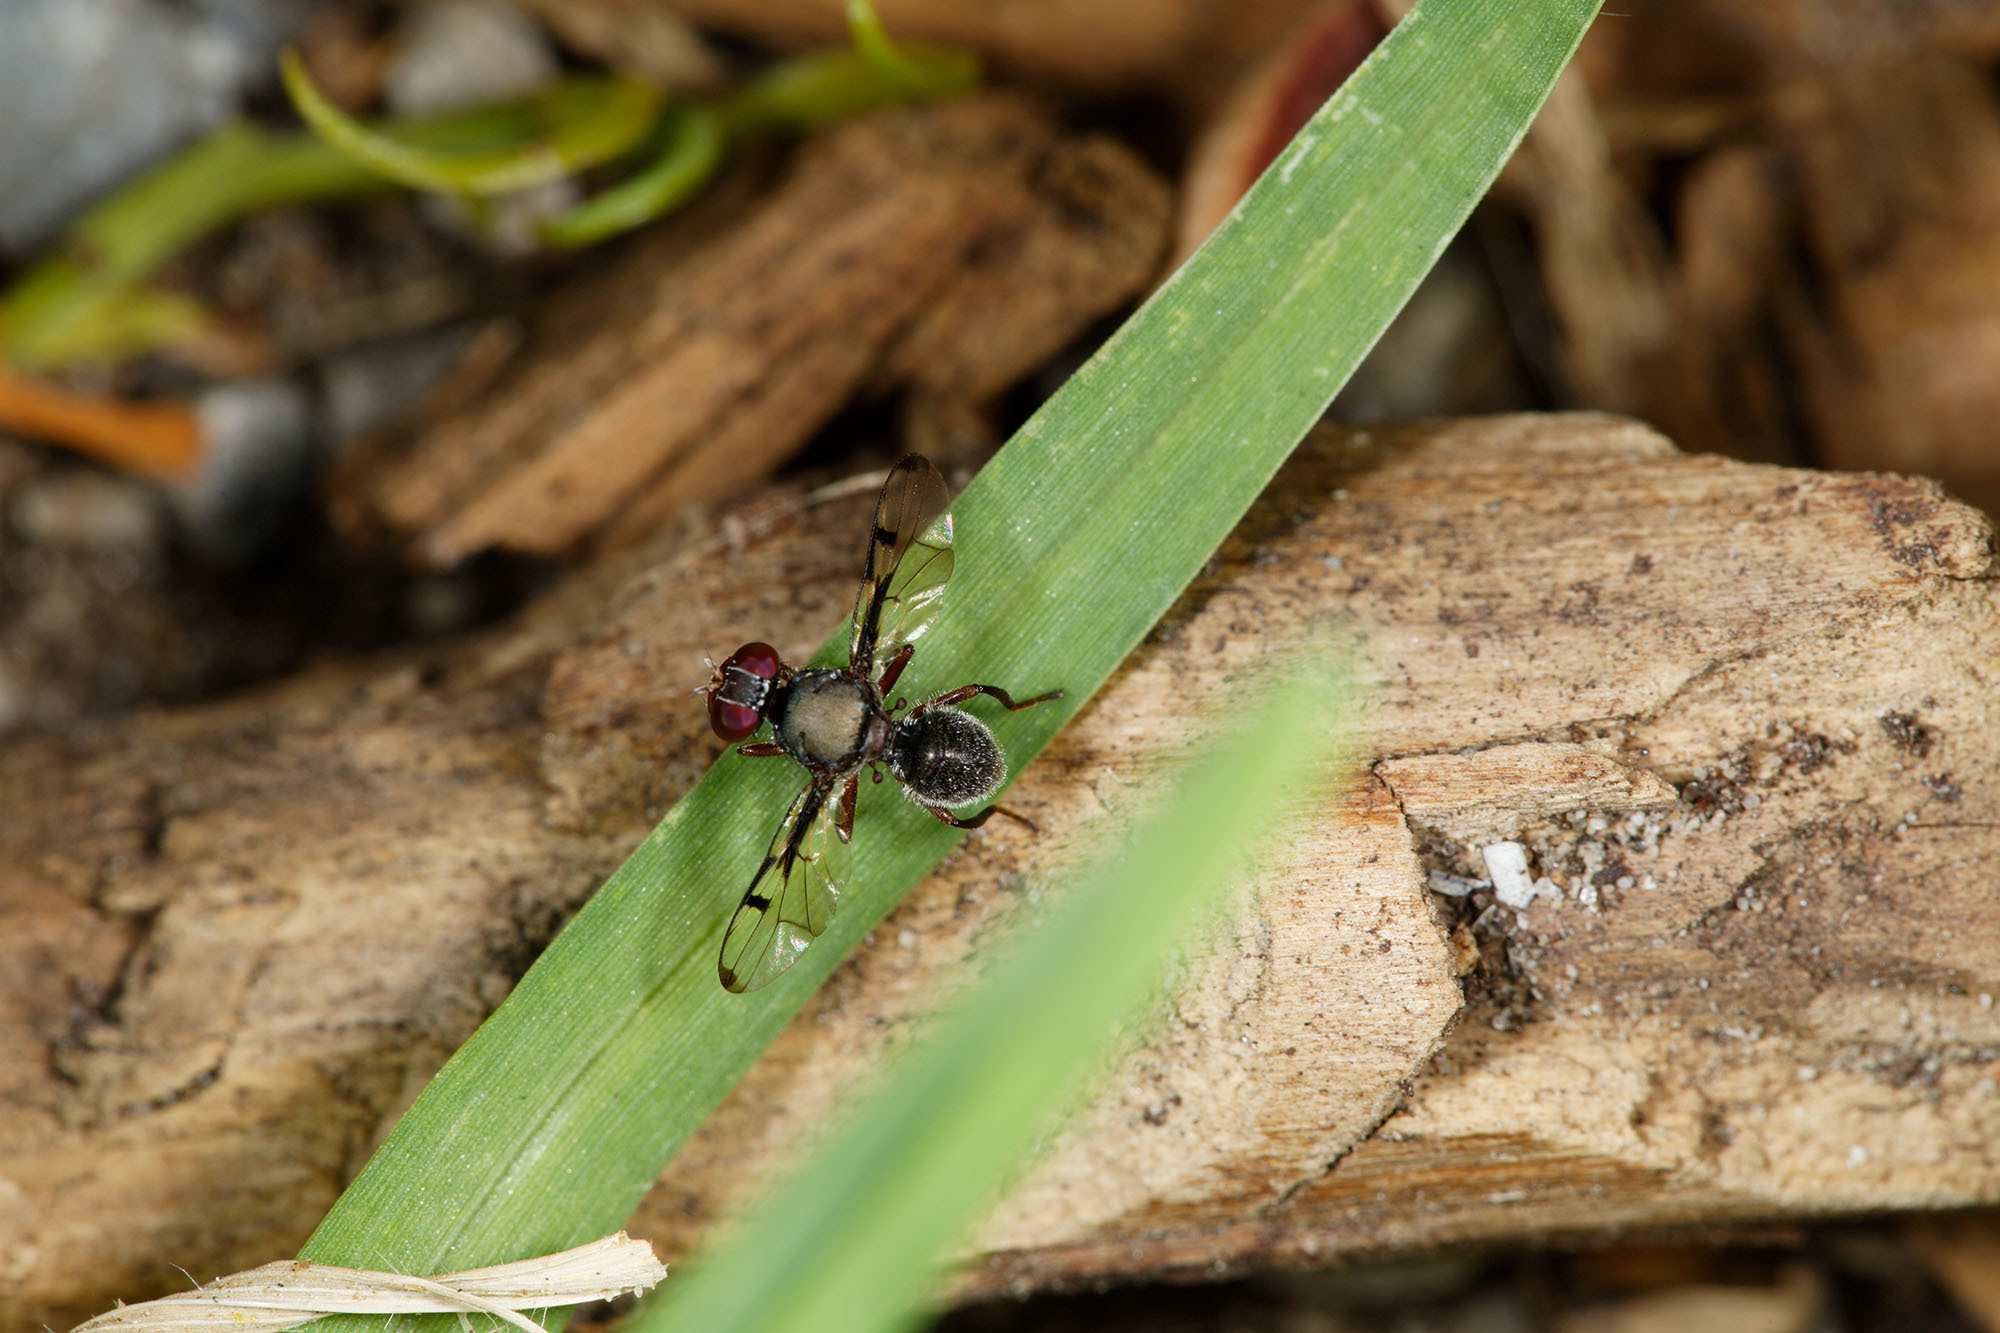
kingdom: Animalia
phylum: Arthropoda
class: Insecta
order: Diptera
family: Platystomatidae
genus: Pogonortalis
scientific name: Pogonortalis doclea
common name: Boatman fly
